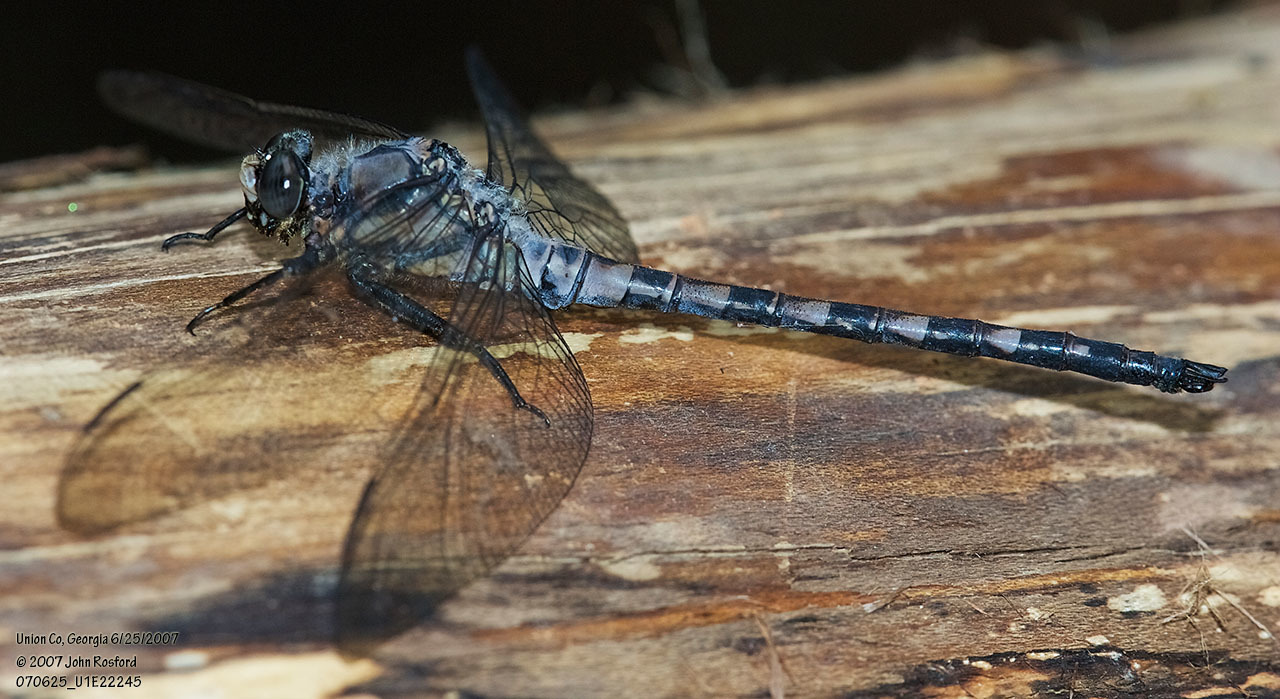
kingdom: Animalia
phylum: Arthropoda
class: Insecta
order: Odonata
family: Petaluridae
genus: Tachopteryx
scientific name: Tachopteryx thoreyi
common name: Gray petaltail
